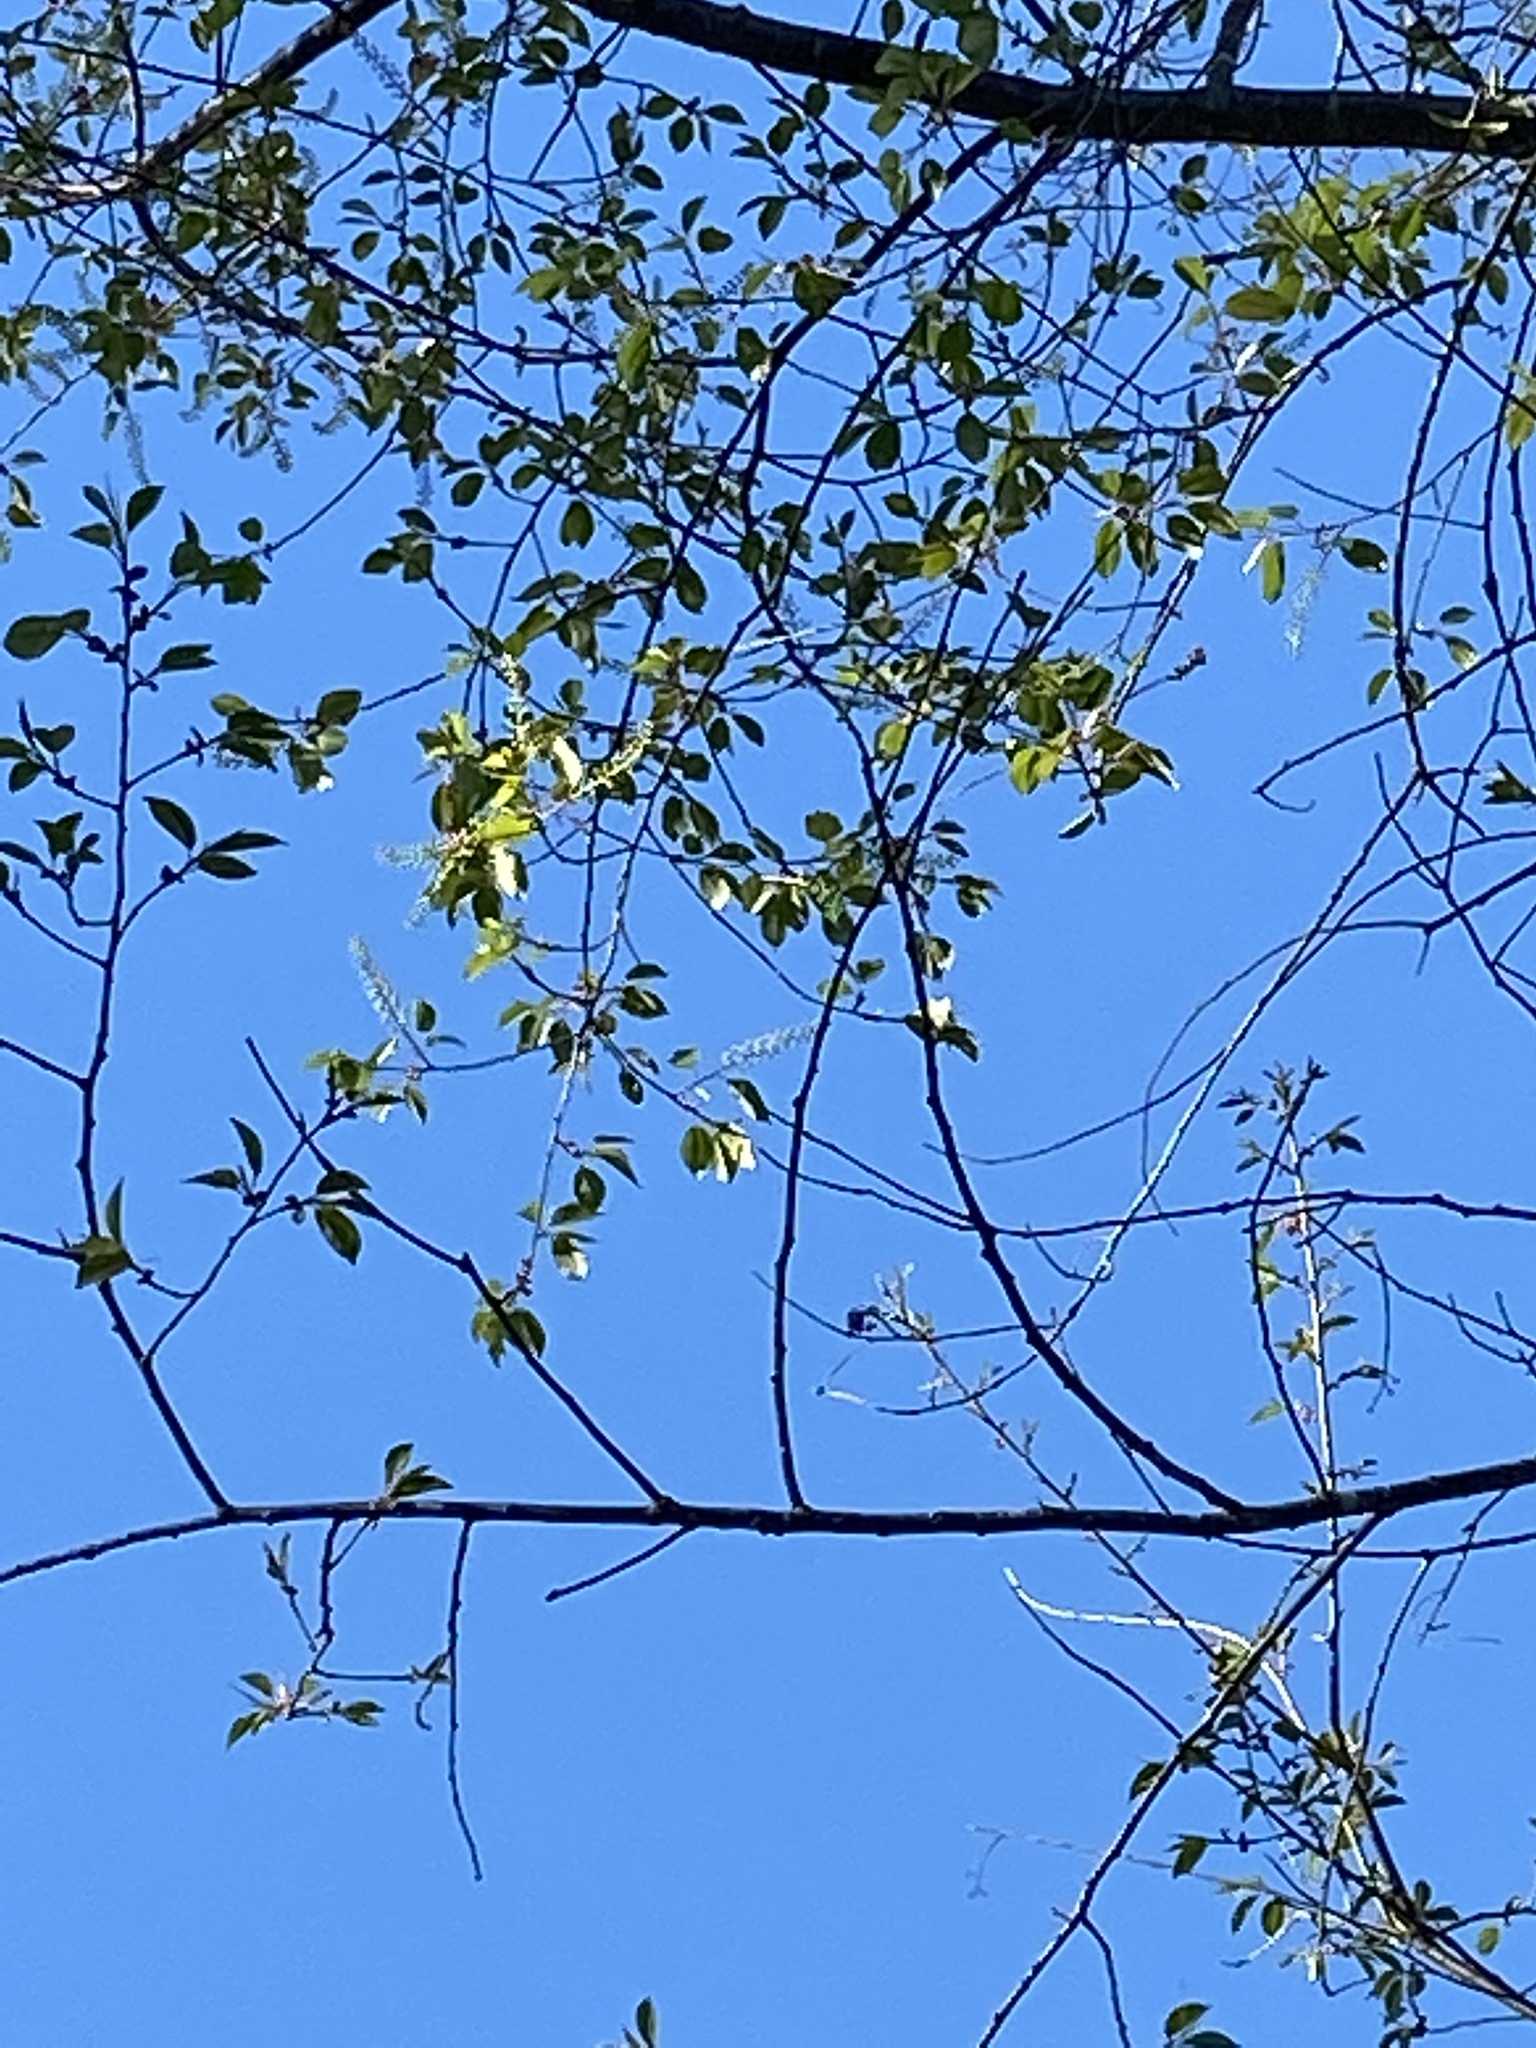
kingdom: Plantae
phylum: Tracheophyta
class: Magnoliopsida
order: Rosales
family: Rosaceae
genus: Prunus
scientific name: Prunus serotina
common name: Black cherry
